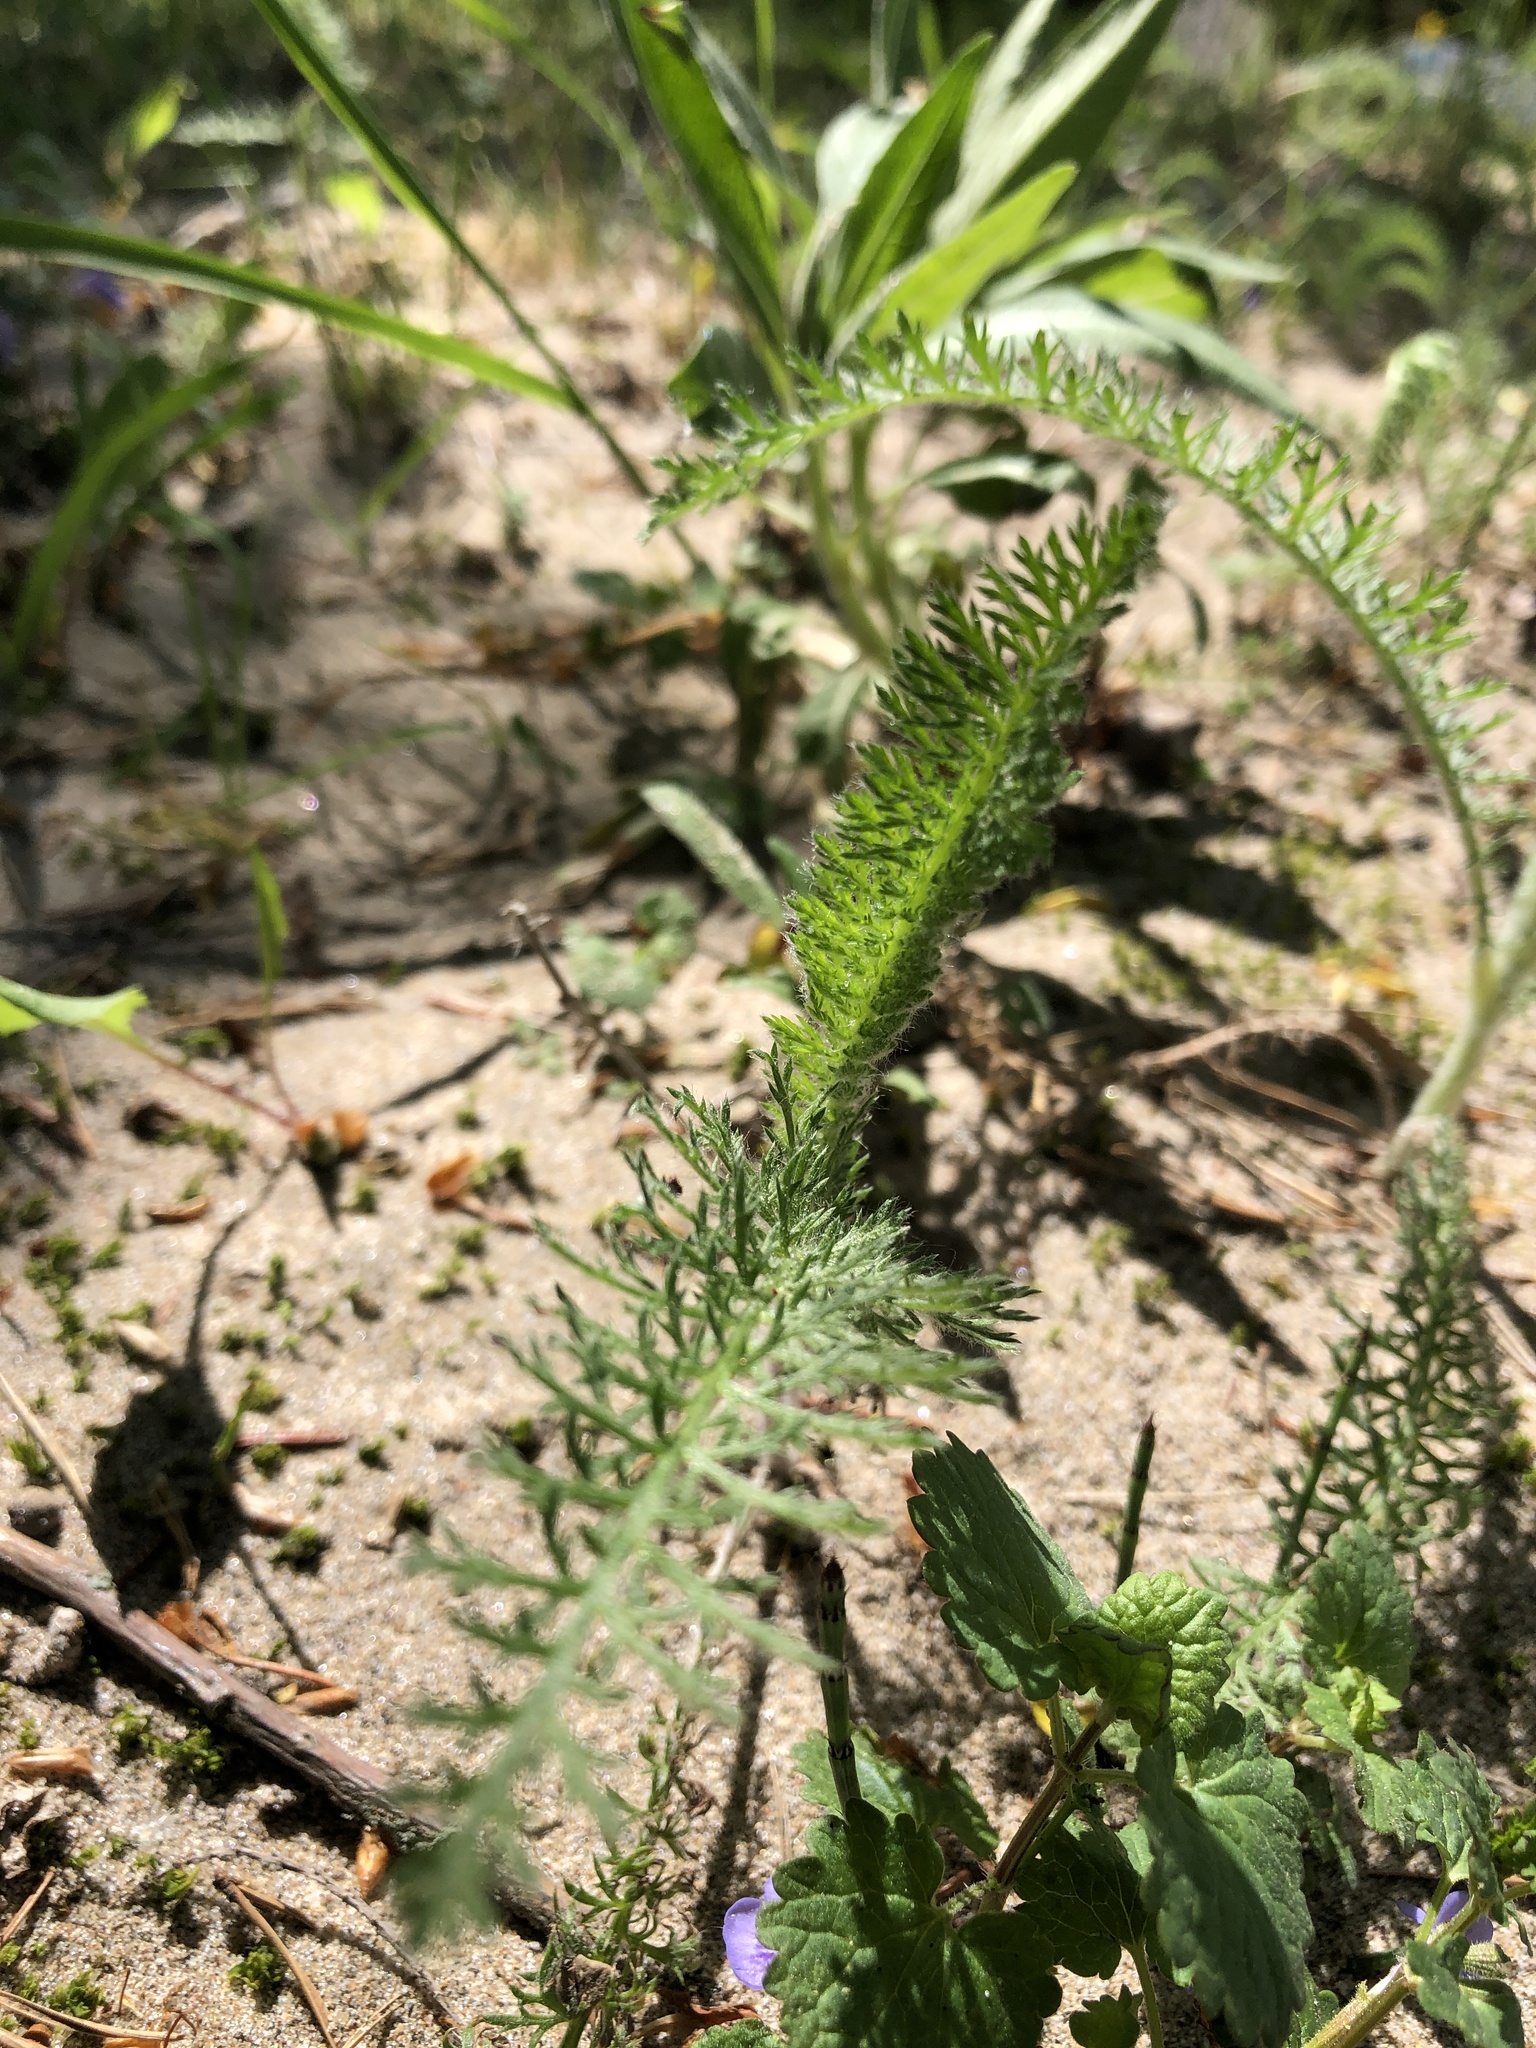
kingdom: Plantae
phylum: Tracheophyta
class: Magnoliopsida
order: Asterales
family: Asteraceae
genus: Achillea
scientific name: Achillea millefolium
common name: Yarrow
